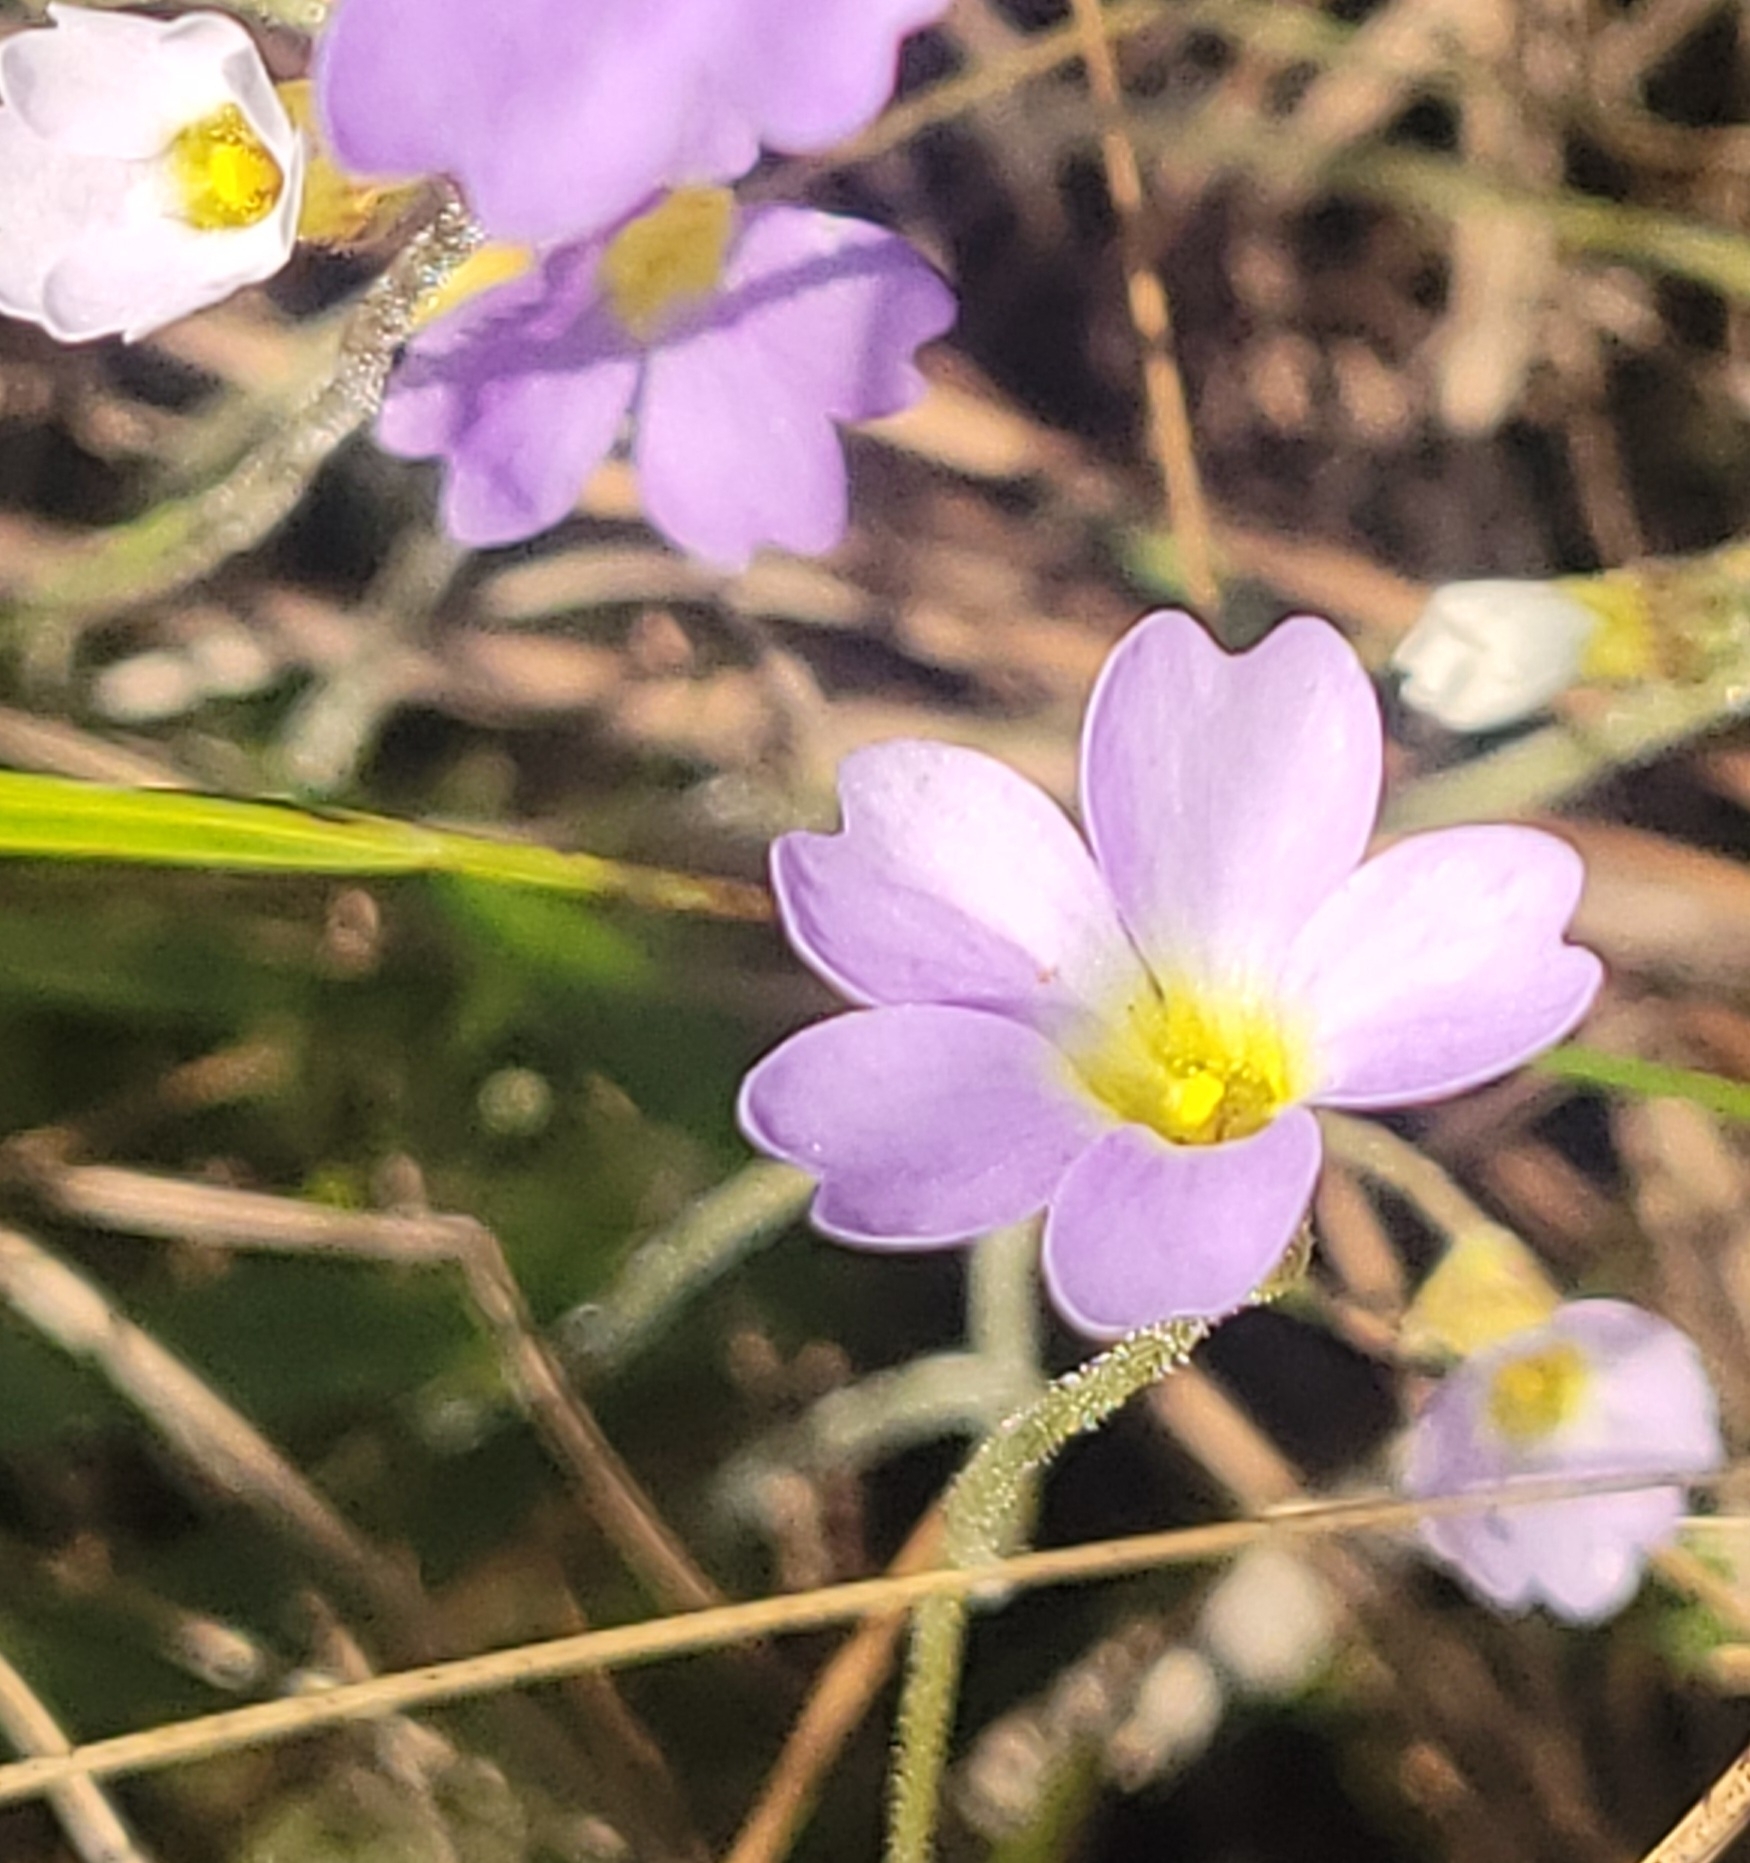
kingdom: Plantae
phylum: Tracheophyta
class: Magnoliopsida
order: Lamiales
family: Lentibulariaceae
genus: Pinguicula
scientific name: Pinguicula pumila
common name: Small butterwort
